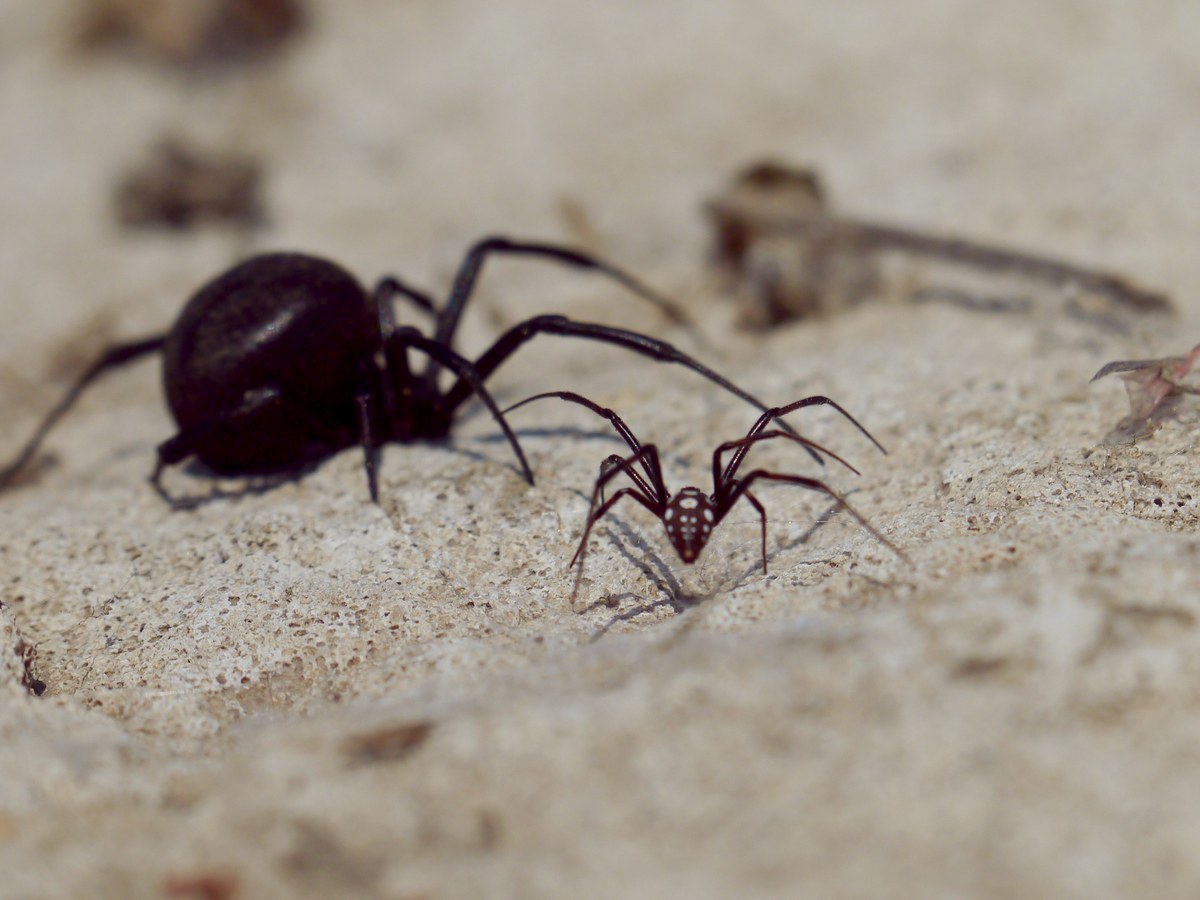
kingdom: Animalia
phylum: Arthropoda
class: Arachnida
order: Araneae
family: Theridiidae
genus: Latrodectus
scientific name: Latrodectus tredecimguttatus
